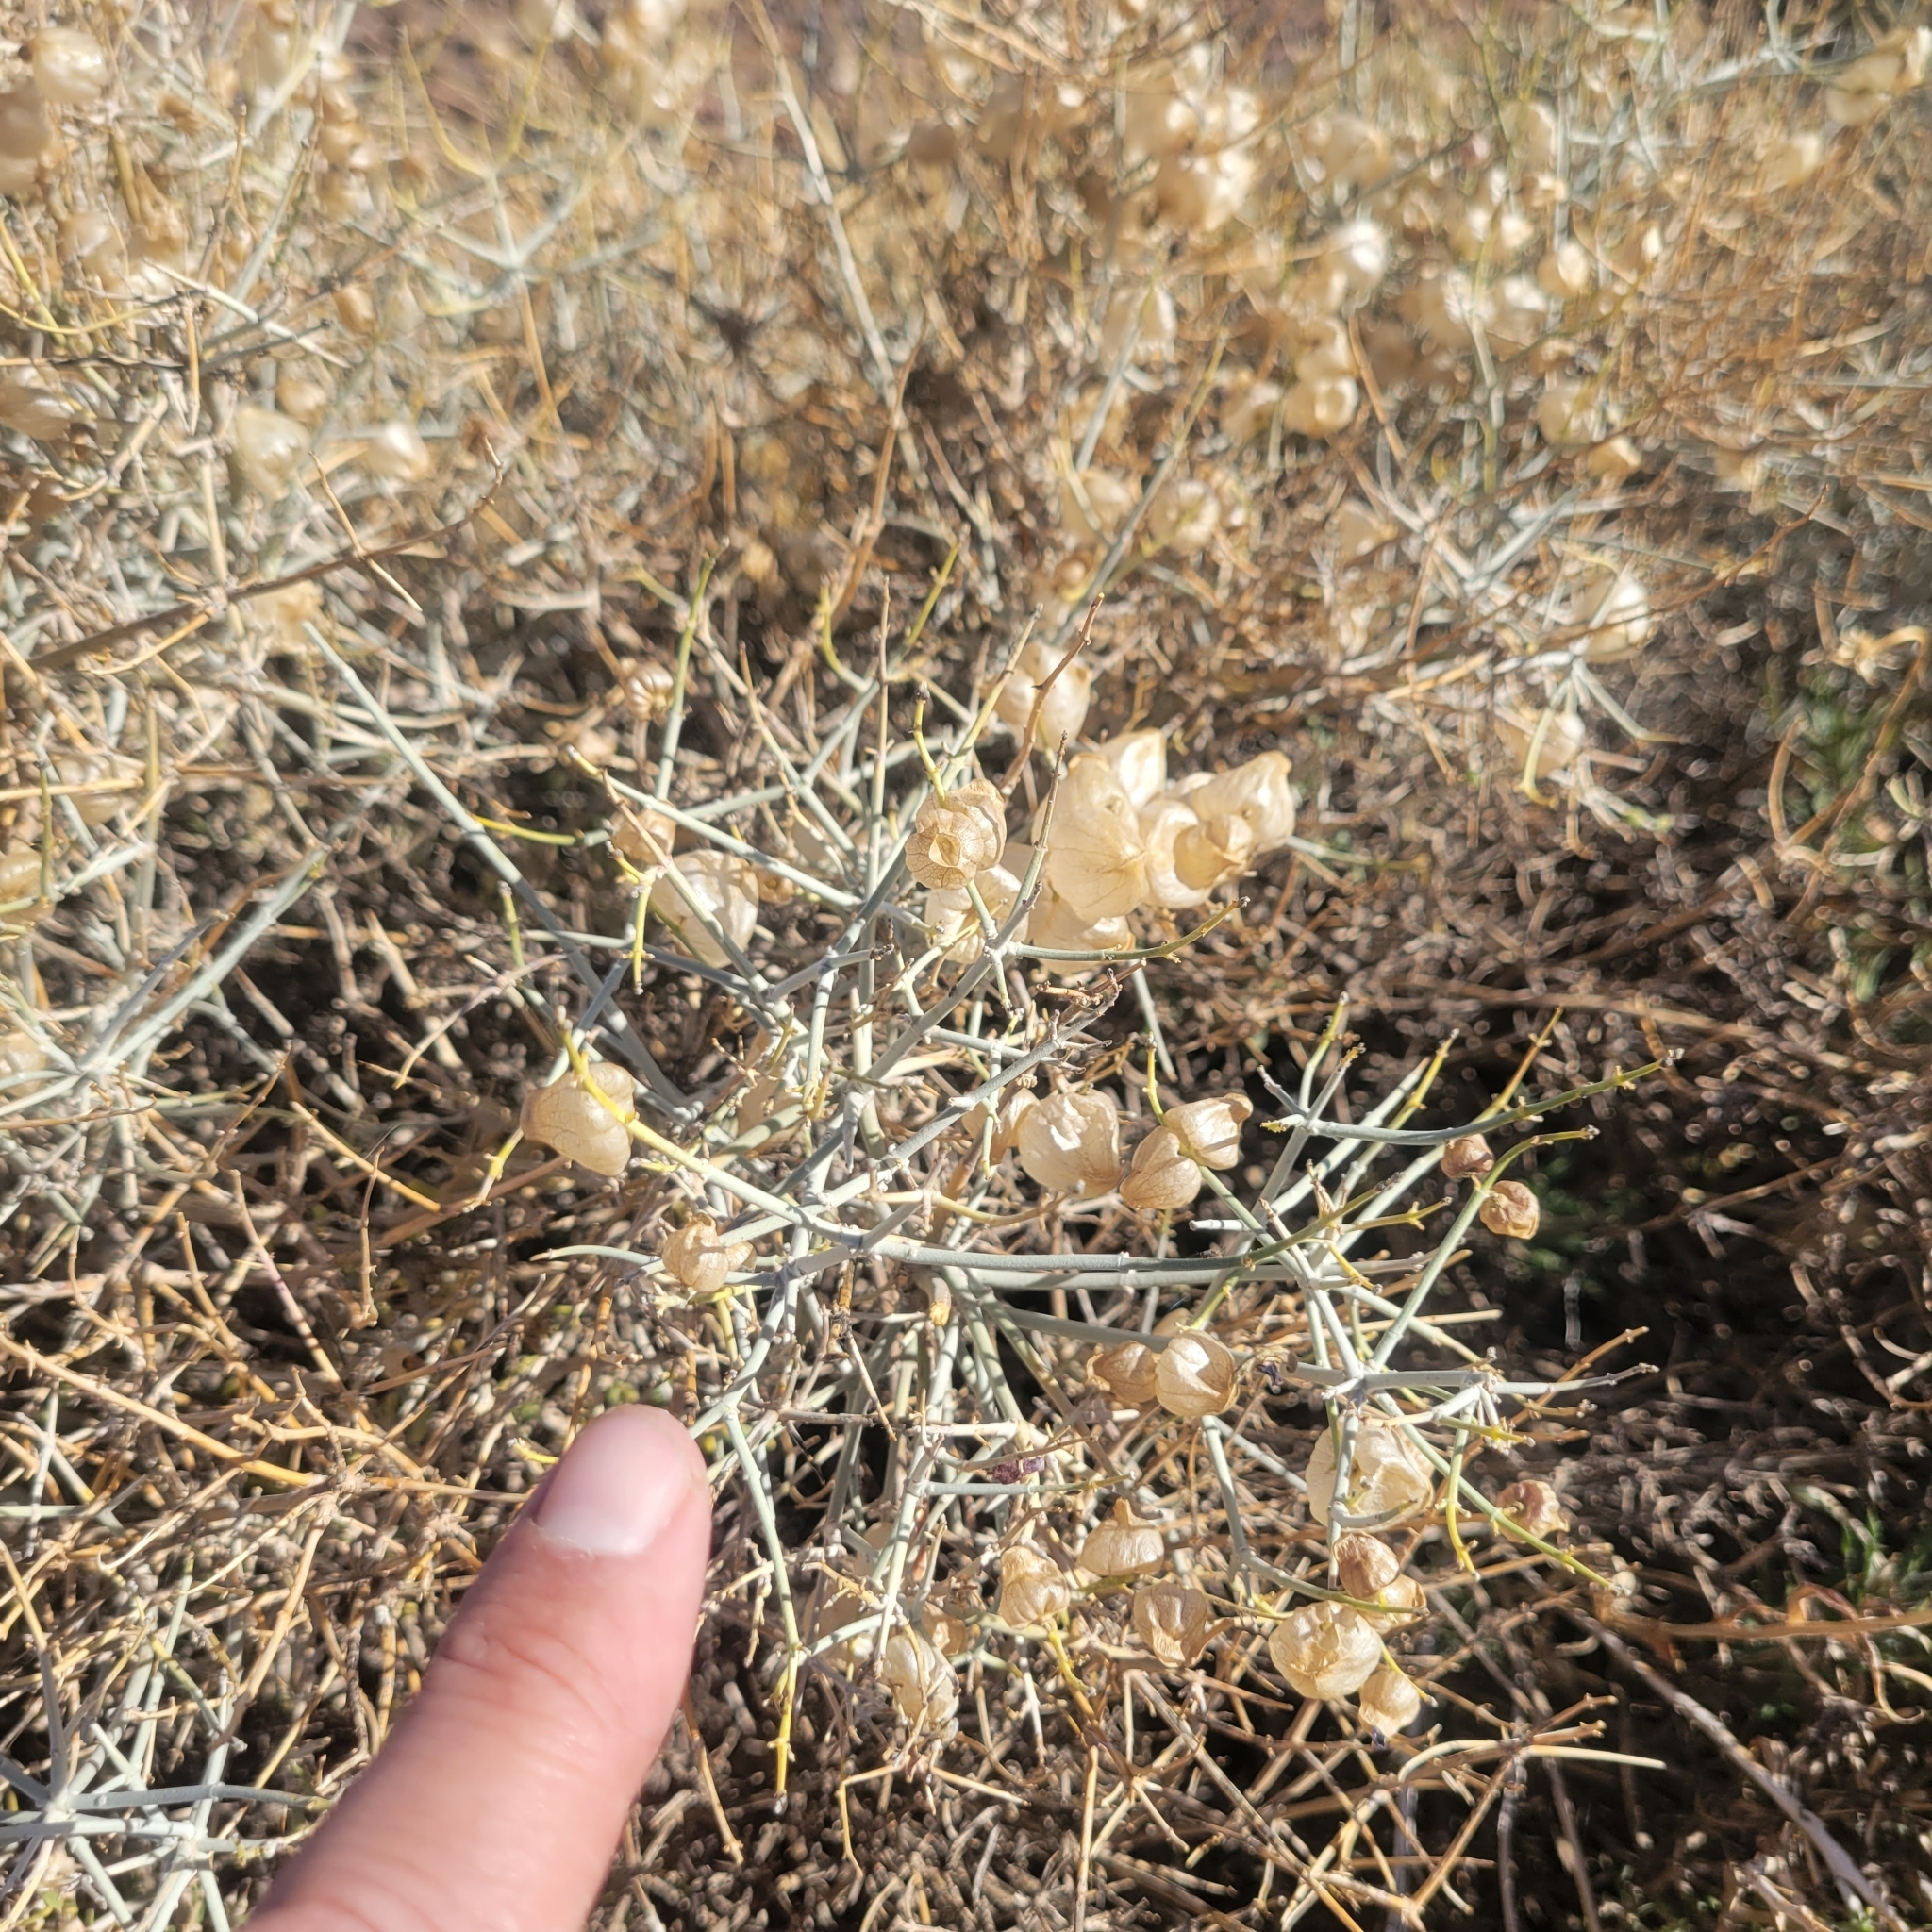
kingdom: Plantae
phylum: Tracheophyta
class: Magnoliopsida
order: Lamiales
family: Lamiaceae
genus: Scutellaria
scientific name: Scutellaria mexicana
